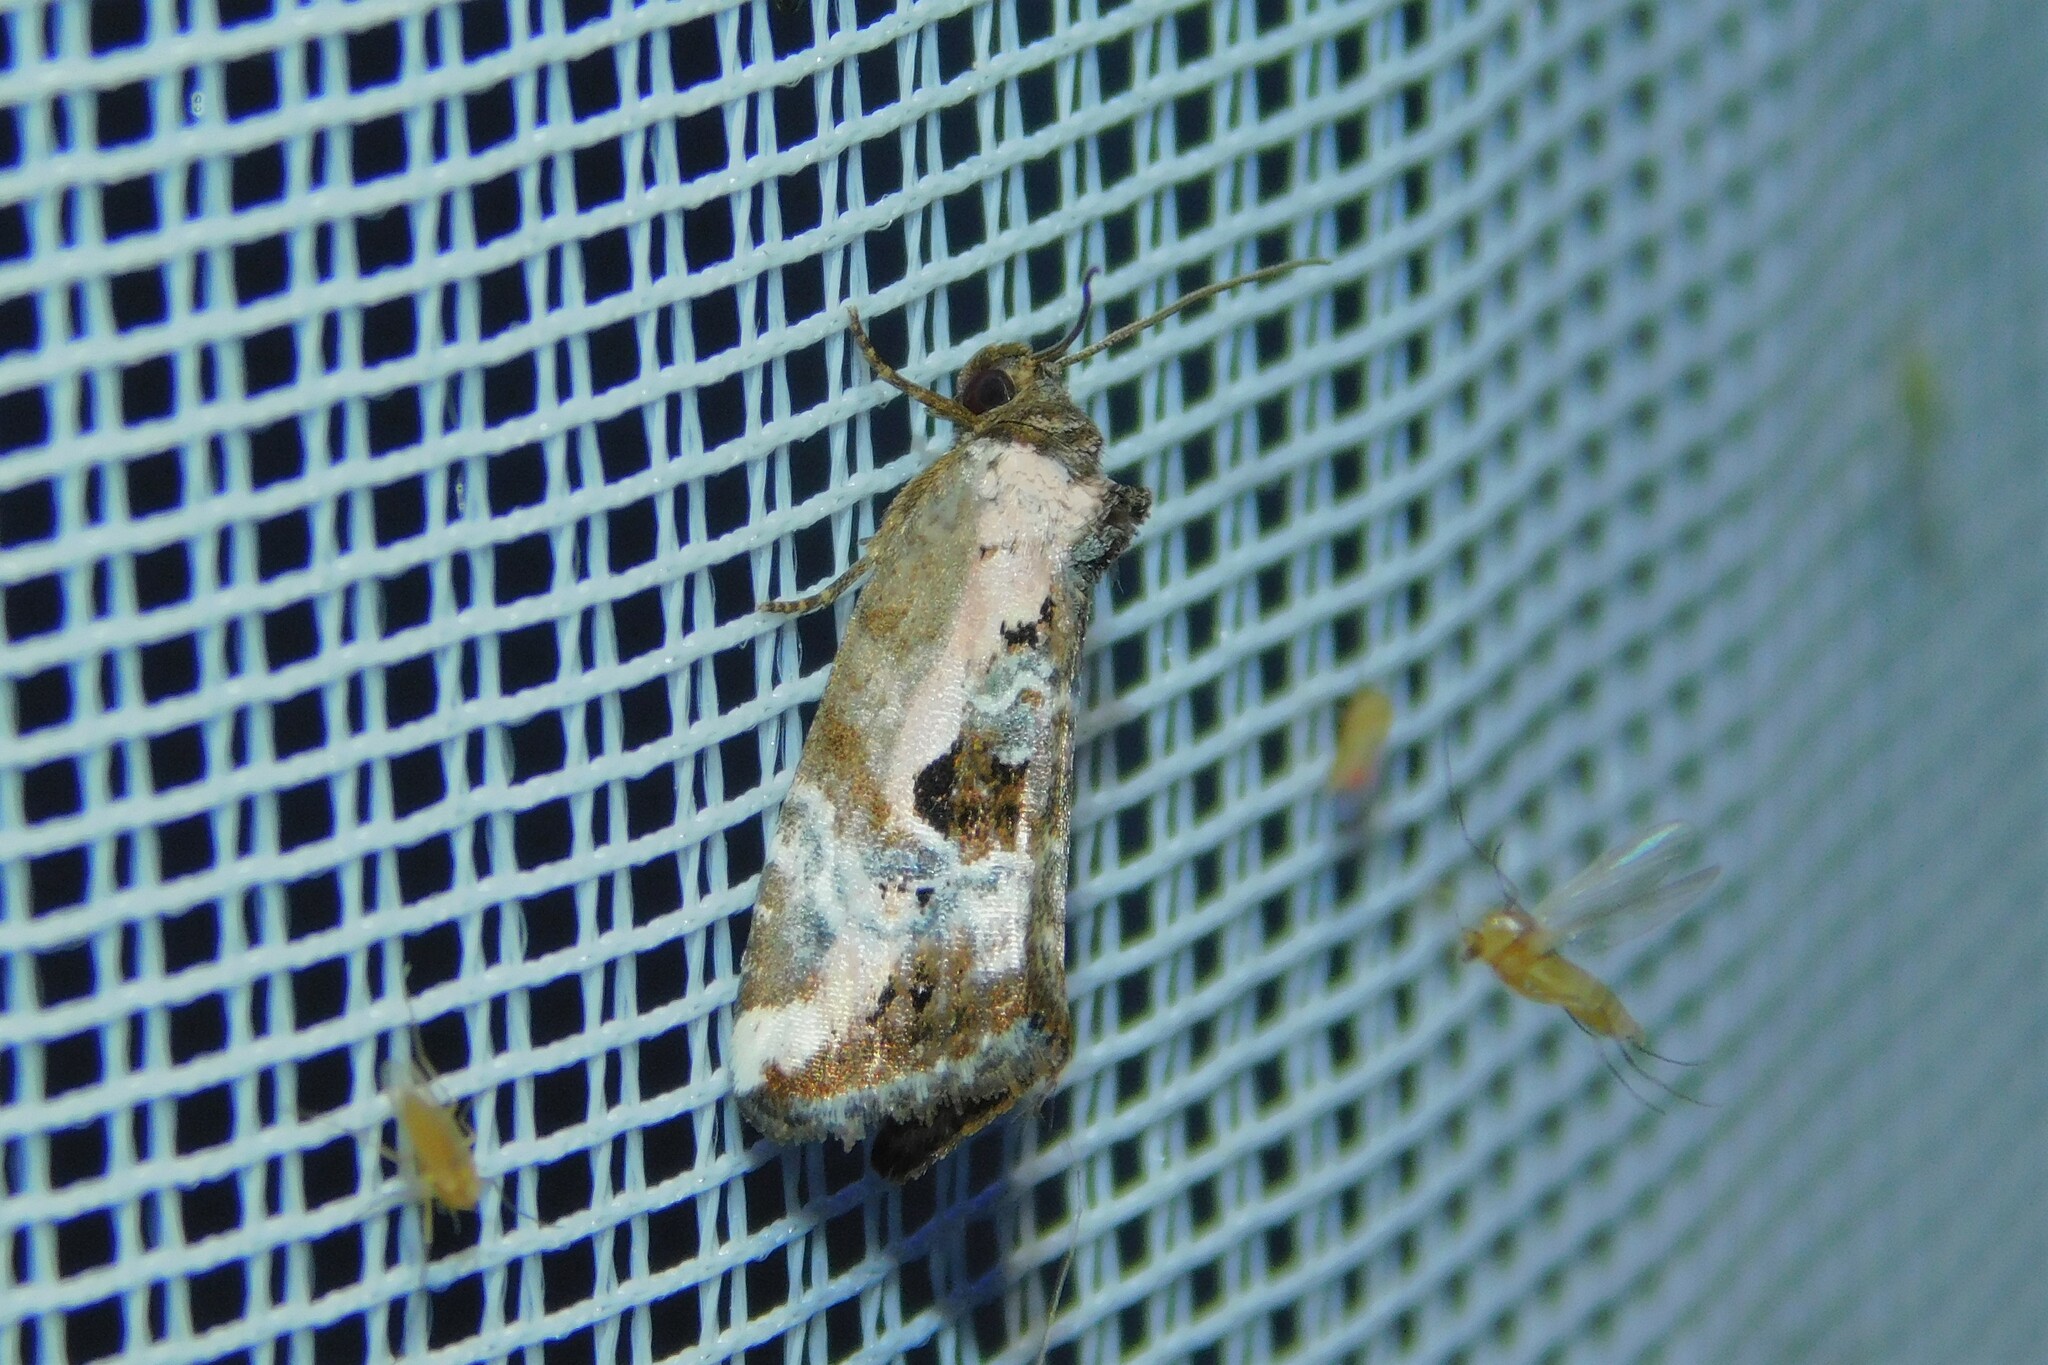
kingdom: Animalia
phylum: Arthropoda
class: Insecta
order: Lepidoptera
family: Noctuidae
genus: Elaphria
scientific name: Elaphria venustula
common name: Rosy marbled
